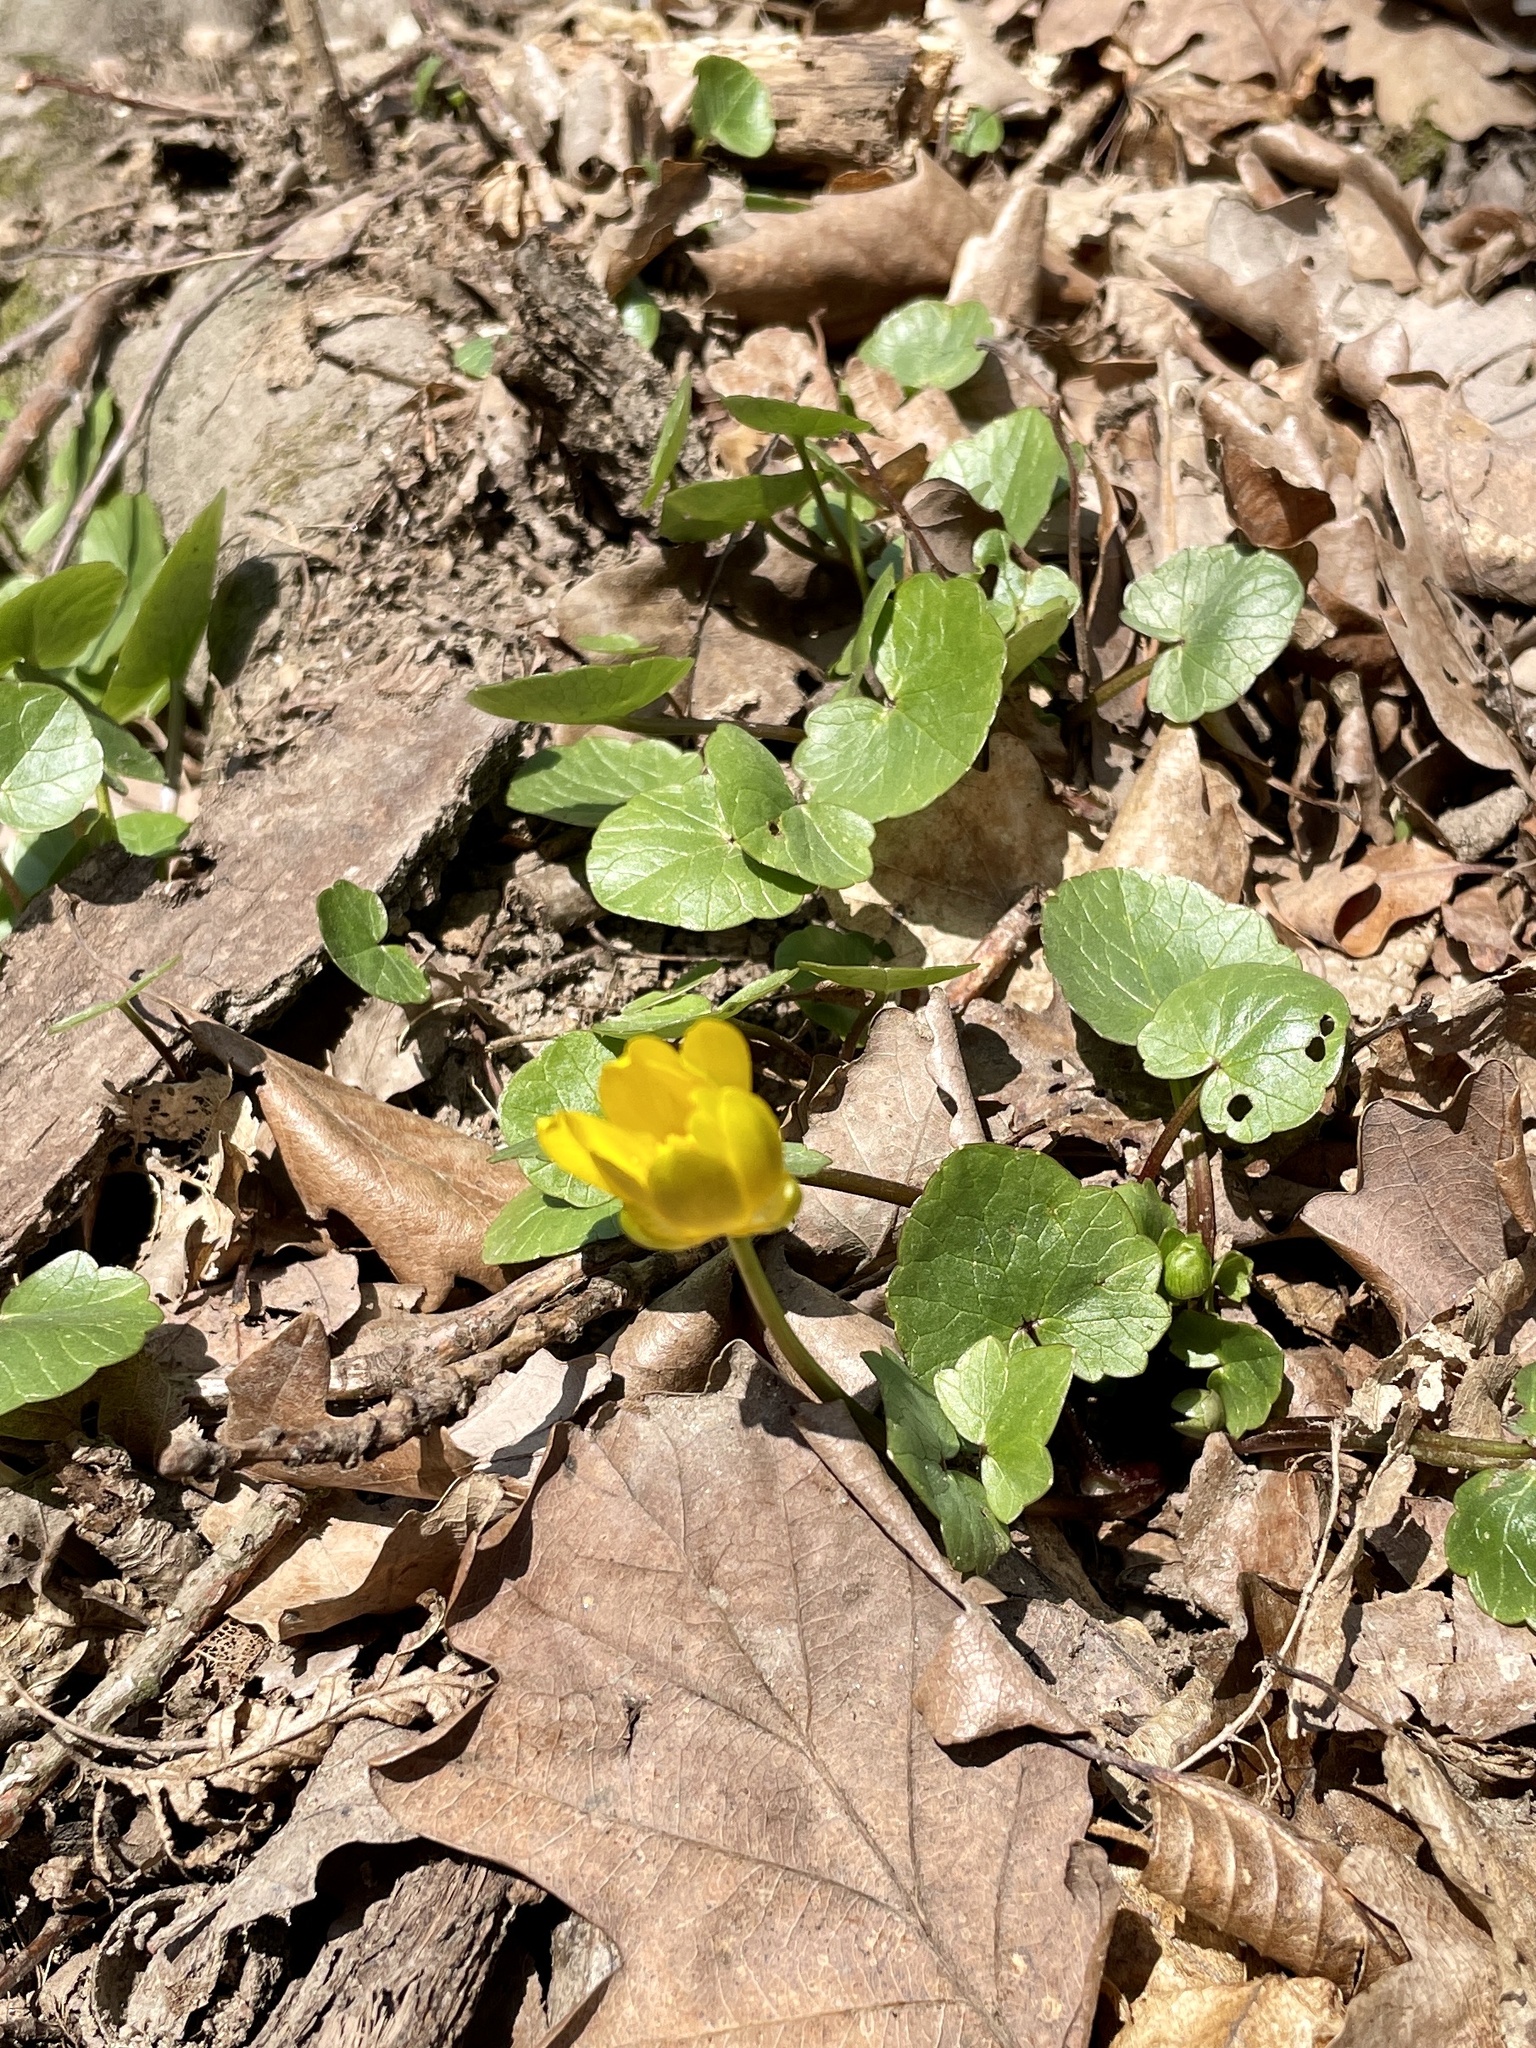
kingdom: Plantae
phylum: Tracheophyta
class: Magnoliopsida
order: Ranunculales
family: Ranunculaceae
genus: Ficaria
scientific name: Ficaria verna
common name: Lesser celandine
